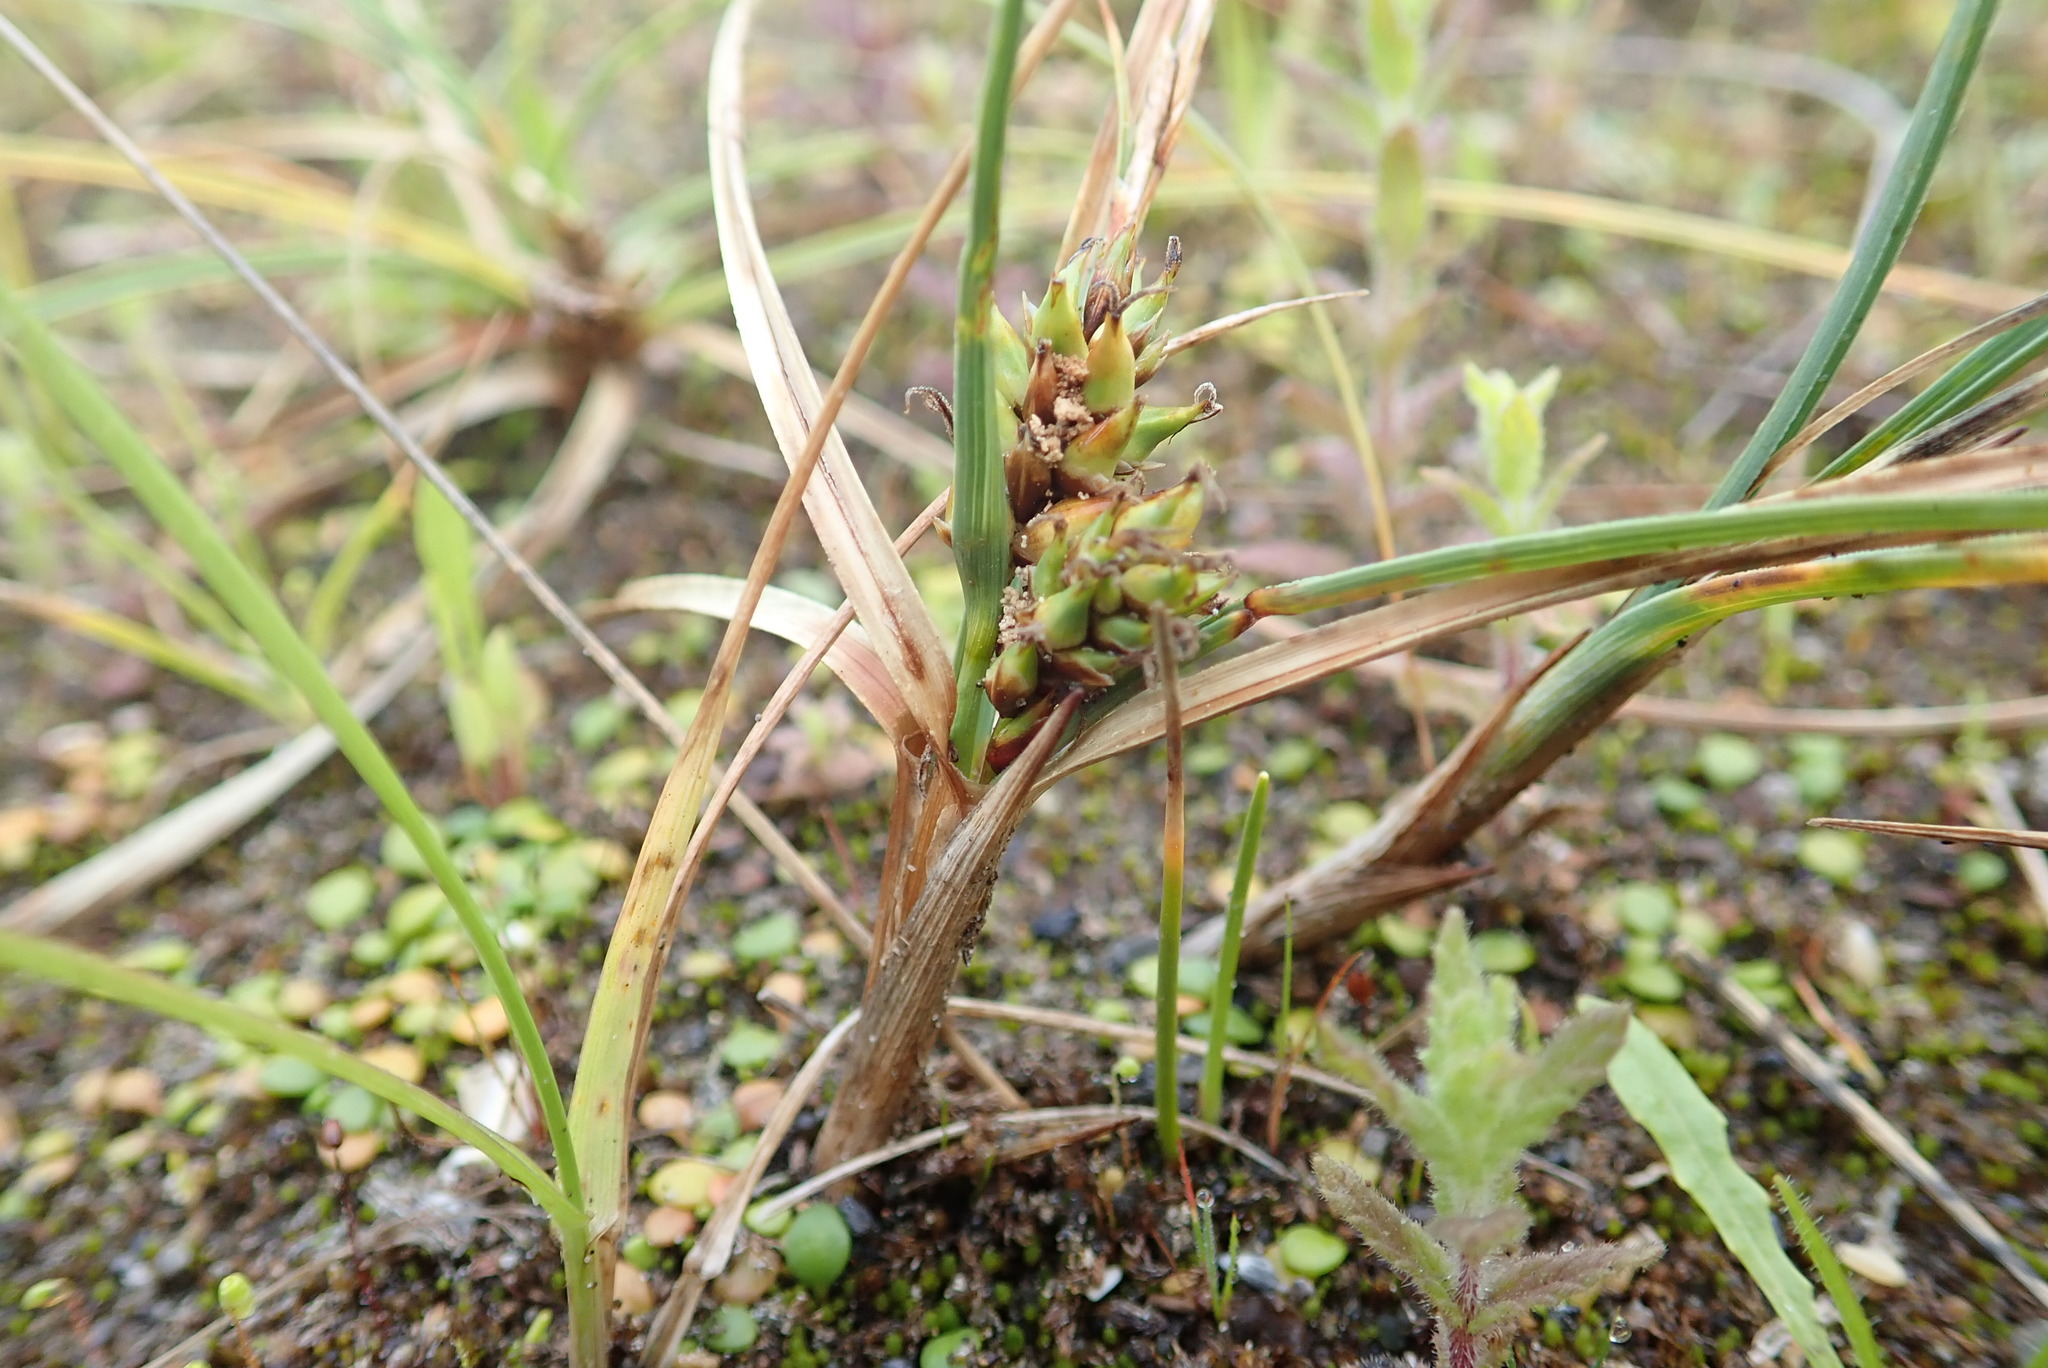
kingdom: Plantae
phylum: Tracheophyta
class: Liliopsida
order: Poales
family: Cyperaceae
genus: Carex
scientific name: Carex pumila
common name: Dwarf sedge
